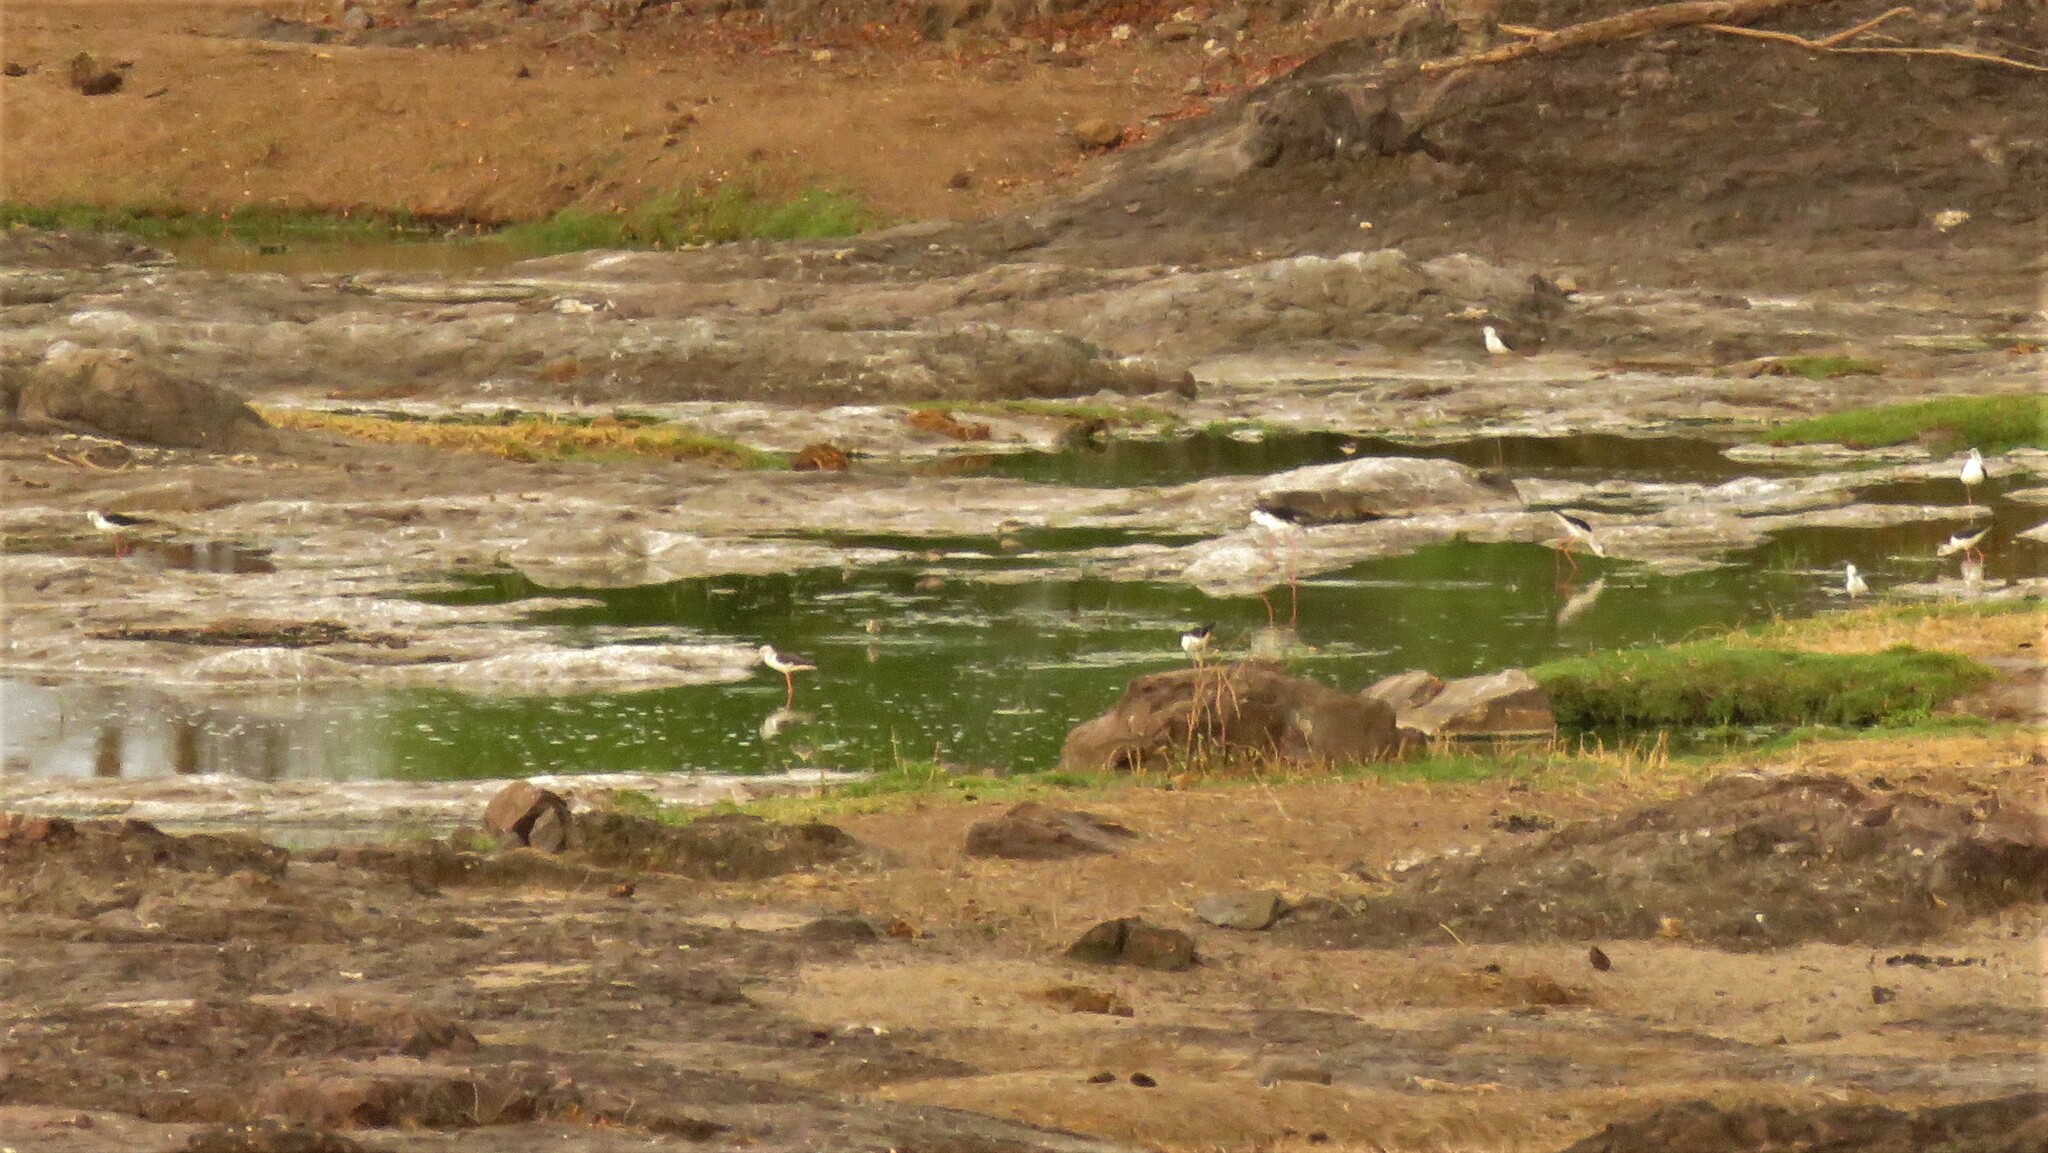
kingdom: Animalia
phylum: Chordata
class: Aves
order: Charadriiformes
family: Recurvirostridae
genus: Himantopus
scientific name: Himantopus himantopus
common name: Black-winged stilt
